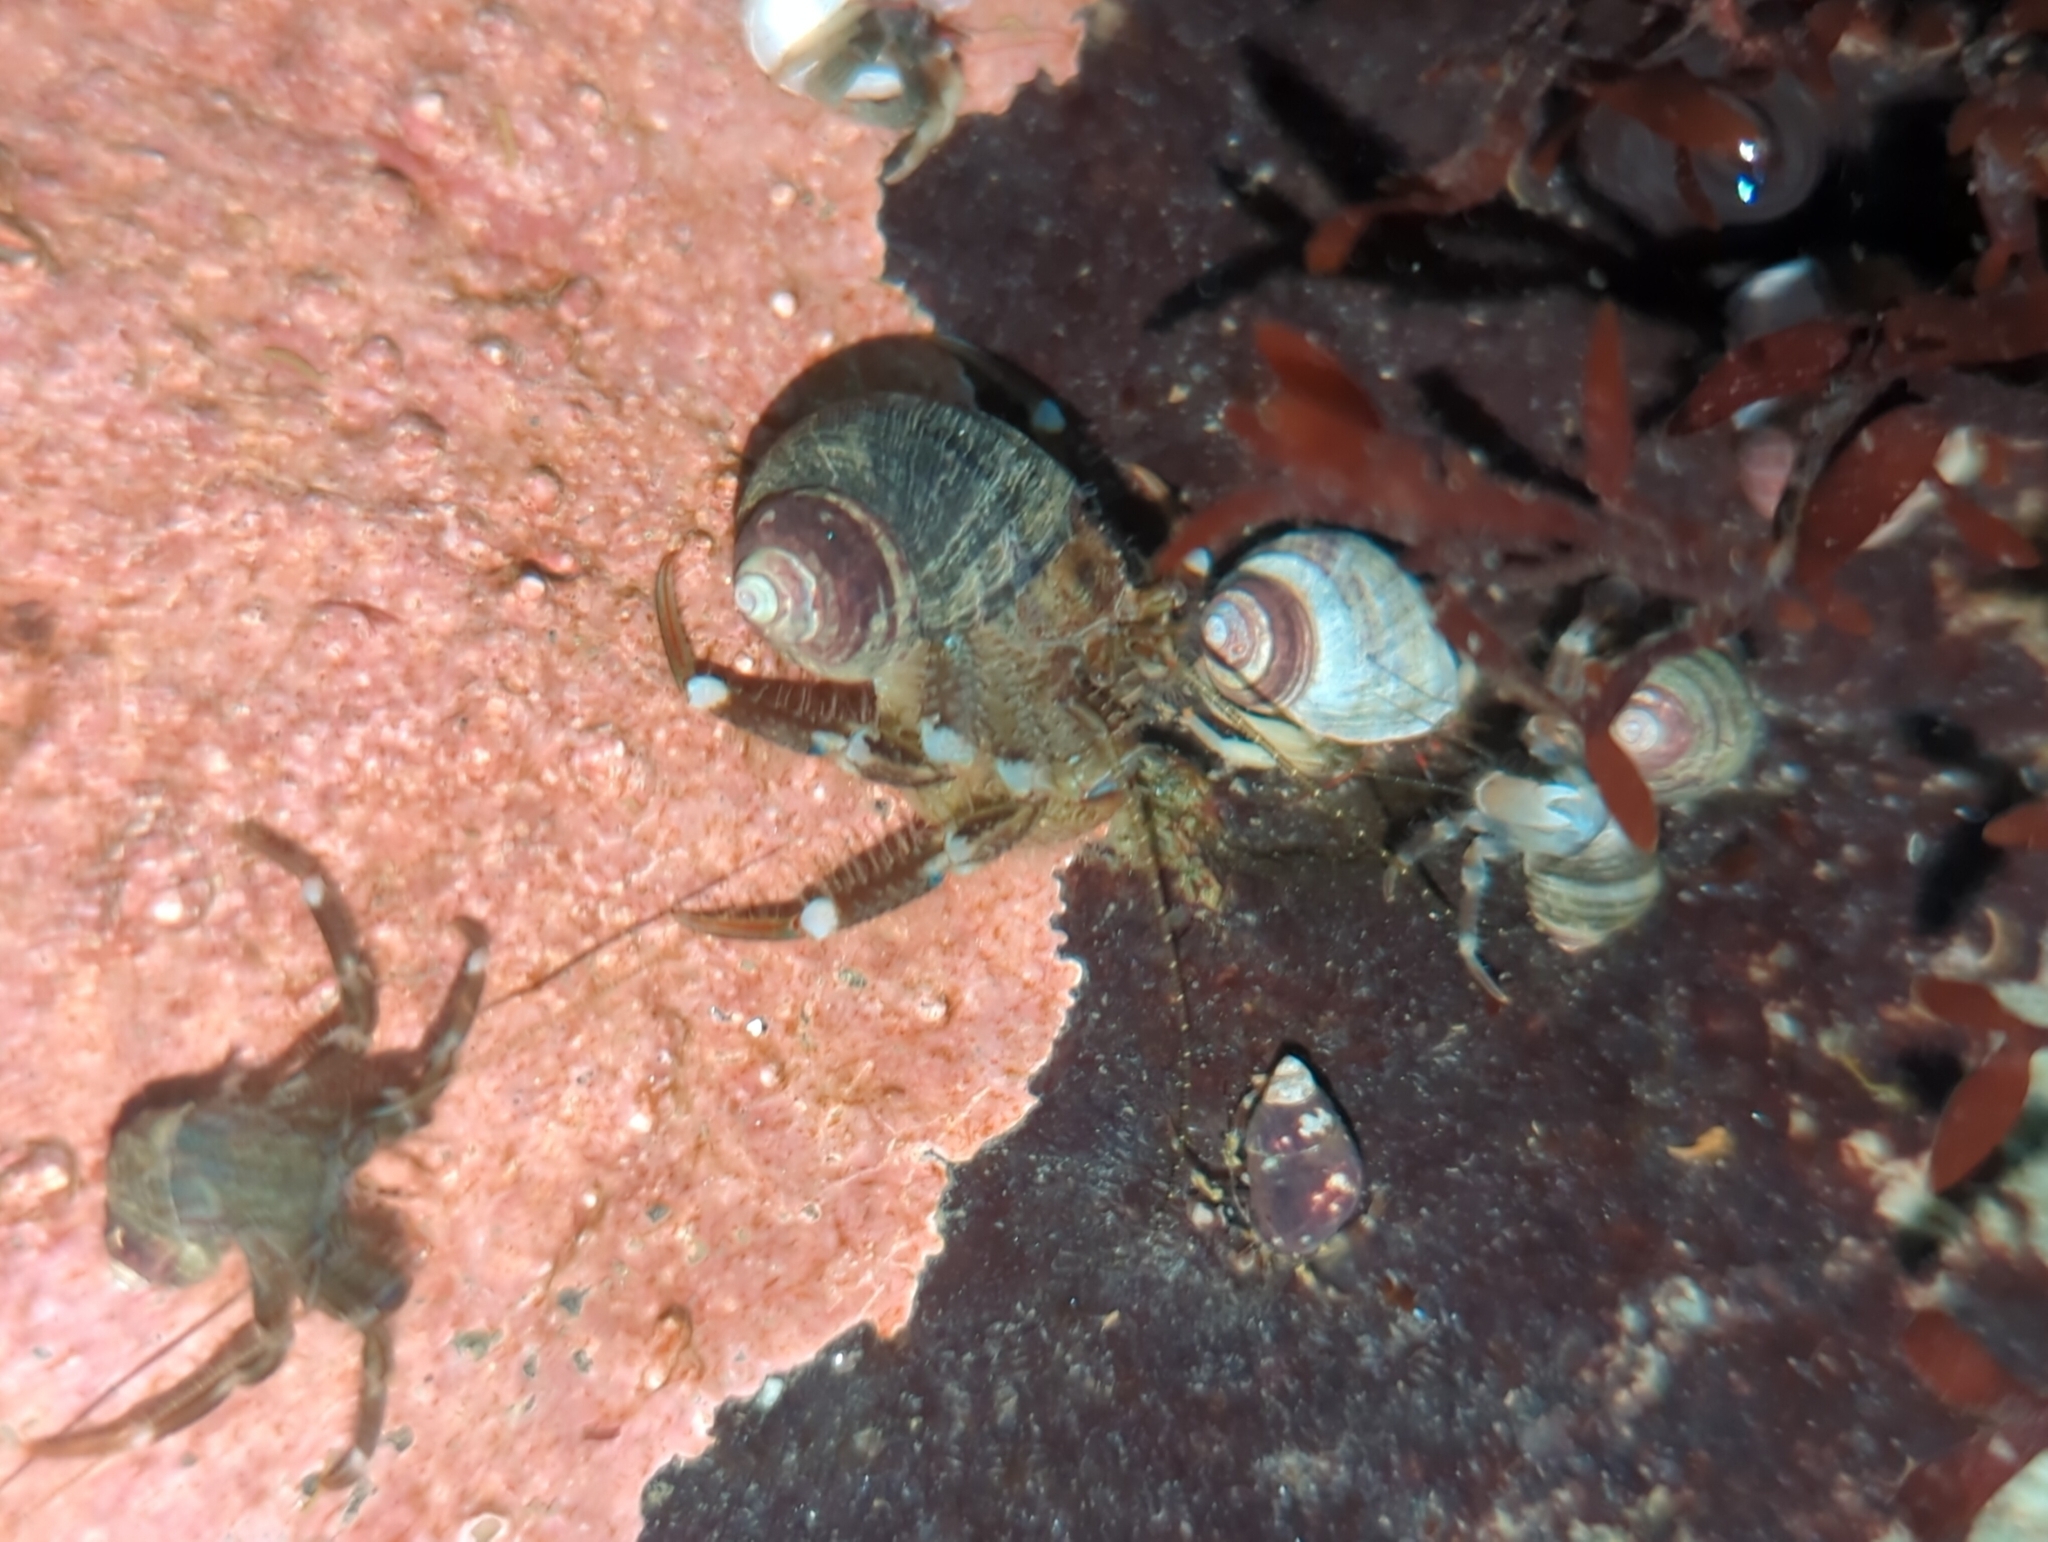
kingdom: Animalia
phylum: Arthropoda
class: Malacostraca
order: Decapoda
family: Paguridae
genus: Pagurus
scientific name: Pagurus hirsutiusculus
